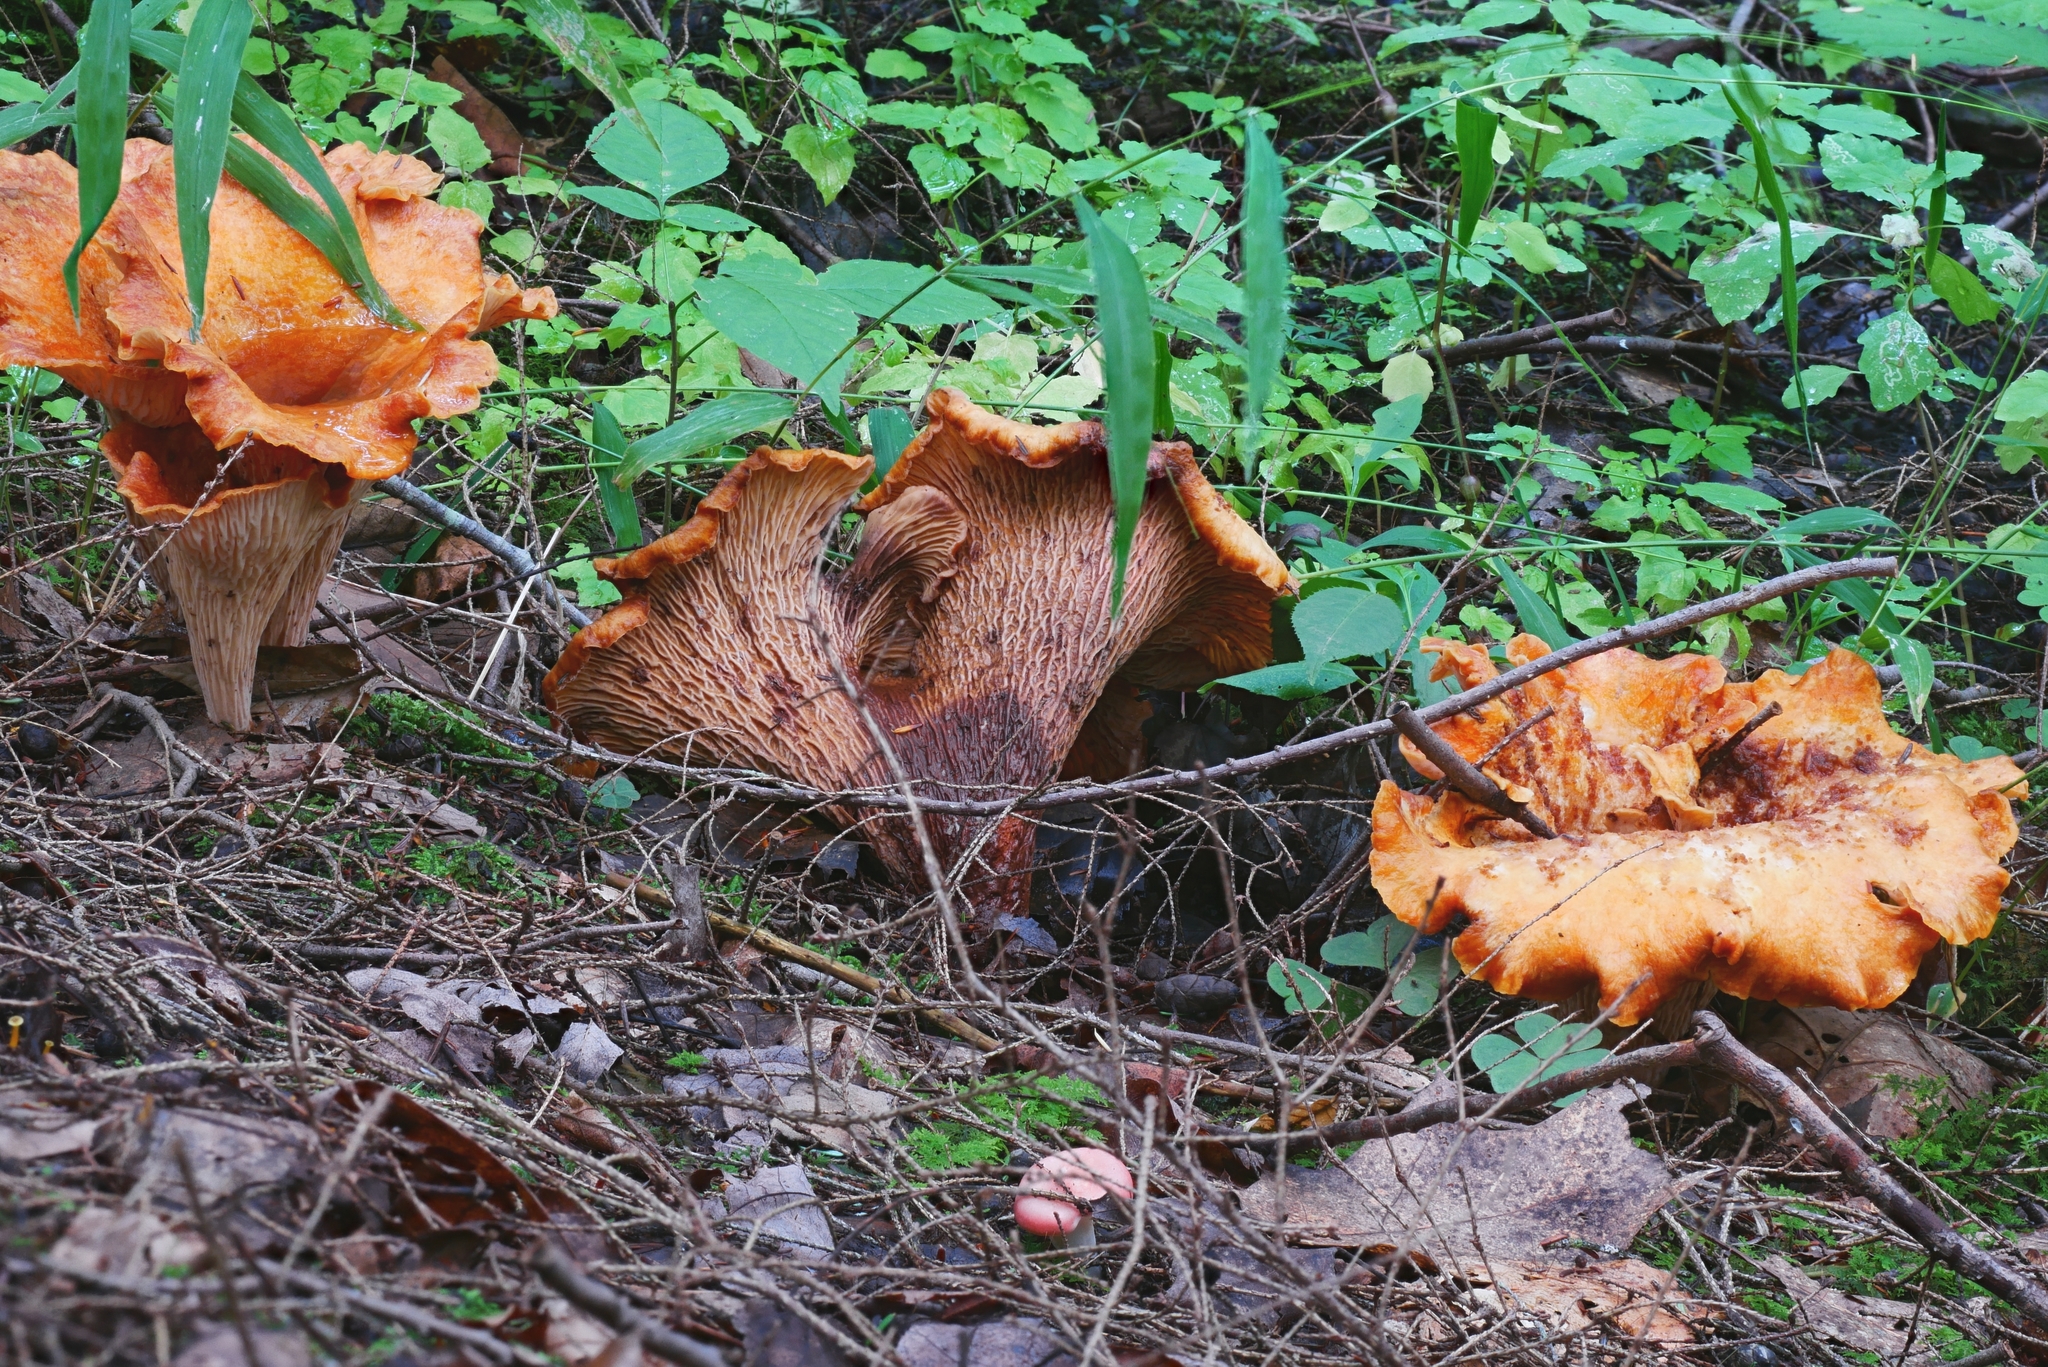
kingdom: Fungi
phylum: Basidiomycota
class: Agaricomycetes
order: Gomphales
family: Gomphaceae
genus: Turbinellus
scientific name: Turbinellus floccosus
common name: Scaly chanterelle
